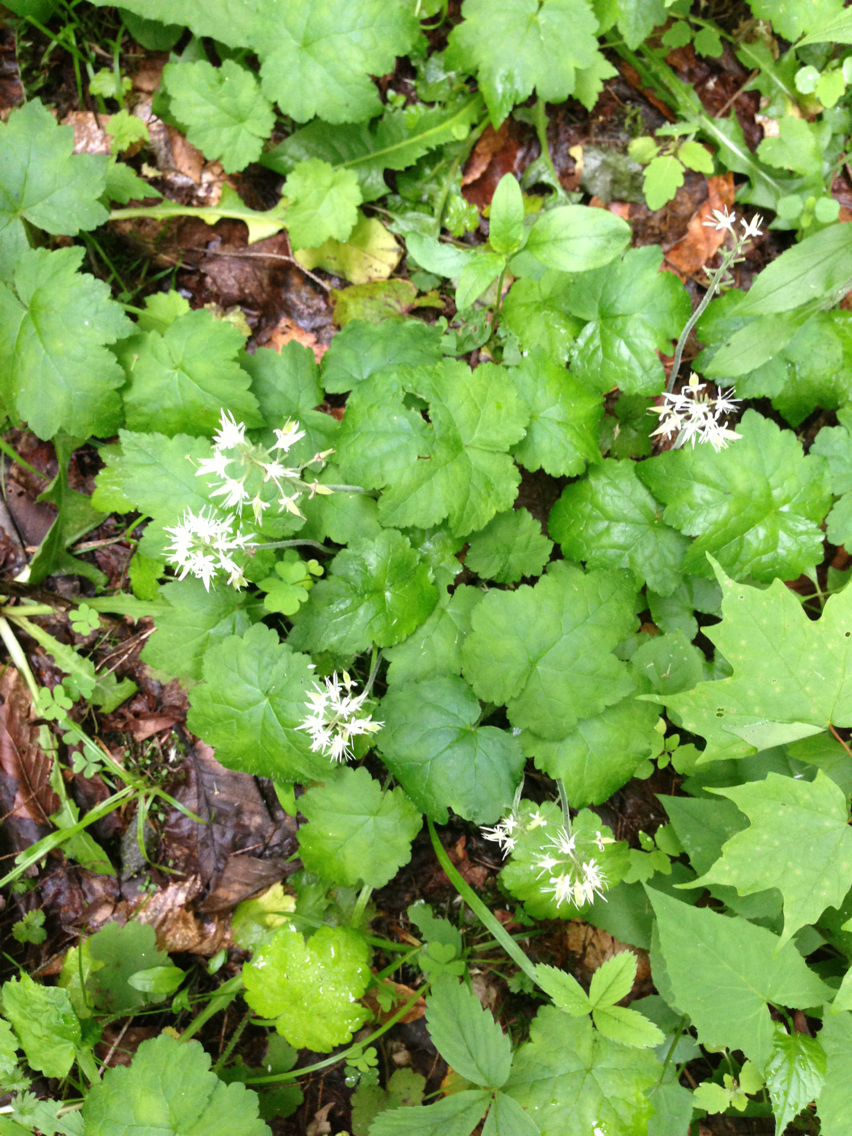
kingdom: Plantae
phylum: Tracheophyta
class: Magnoliopsida
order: Saxifragales
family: Saxifragaceae
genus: Tiarella
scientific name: Tiarella stolonifera
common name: Stoloniferous foamflower
